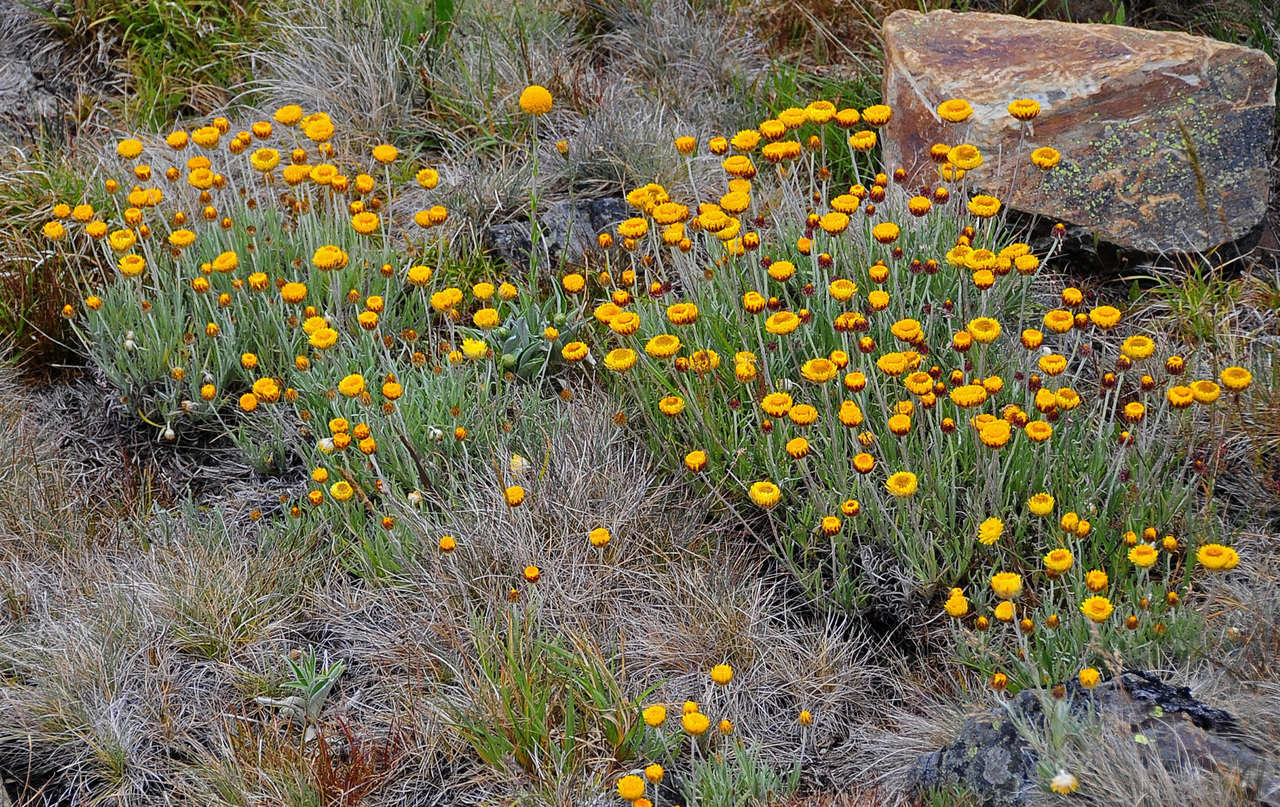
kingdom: Plantae
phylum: Tracheophyta
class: Magnoliopsida
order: Asterales
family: Asteraceae
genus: Leucochrysum
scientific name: Leucochrysum albicans
